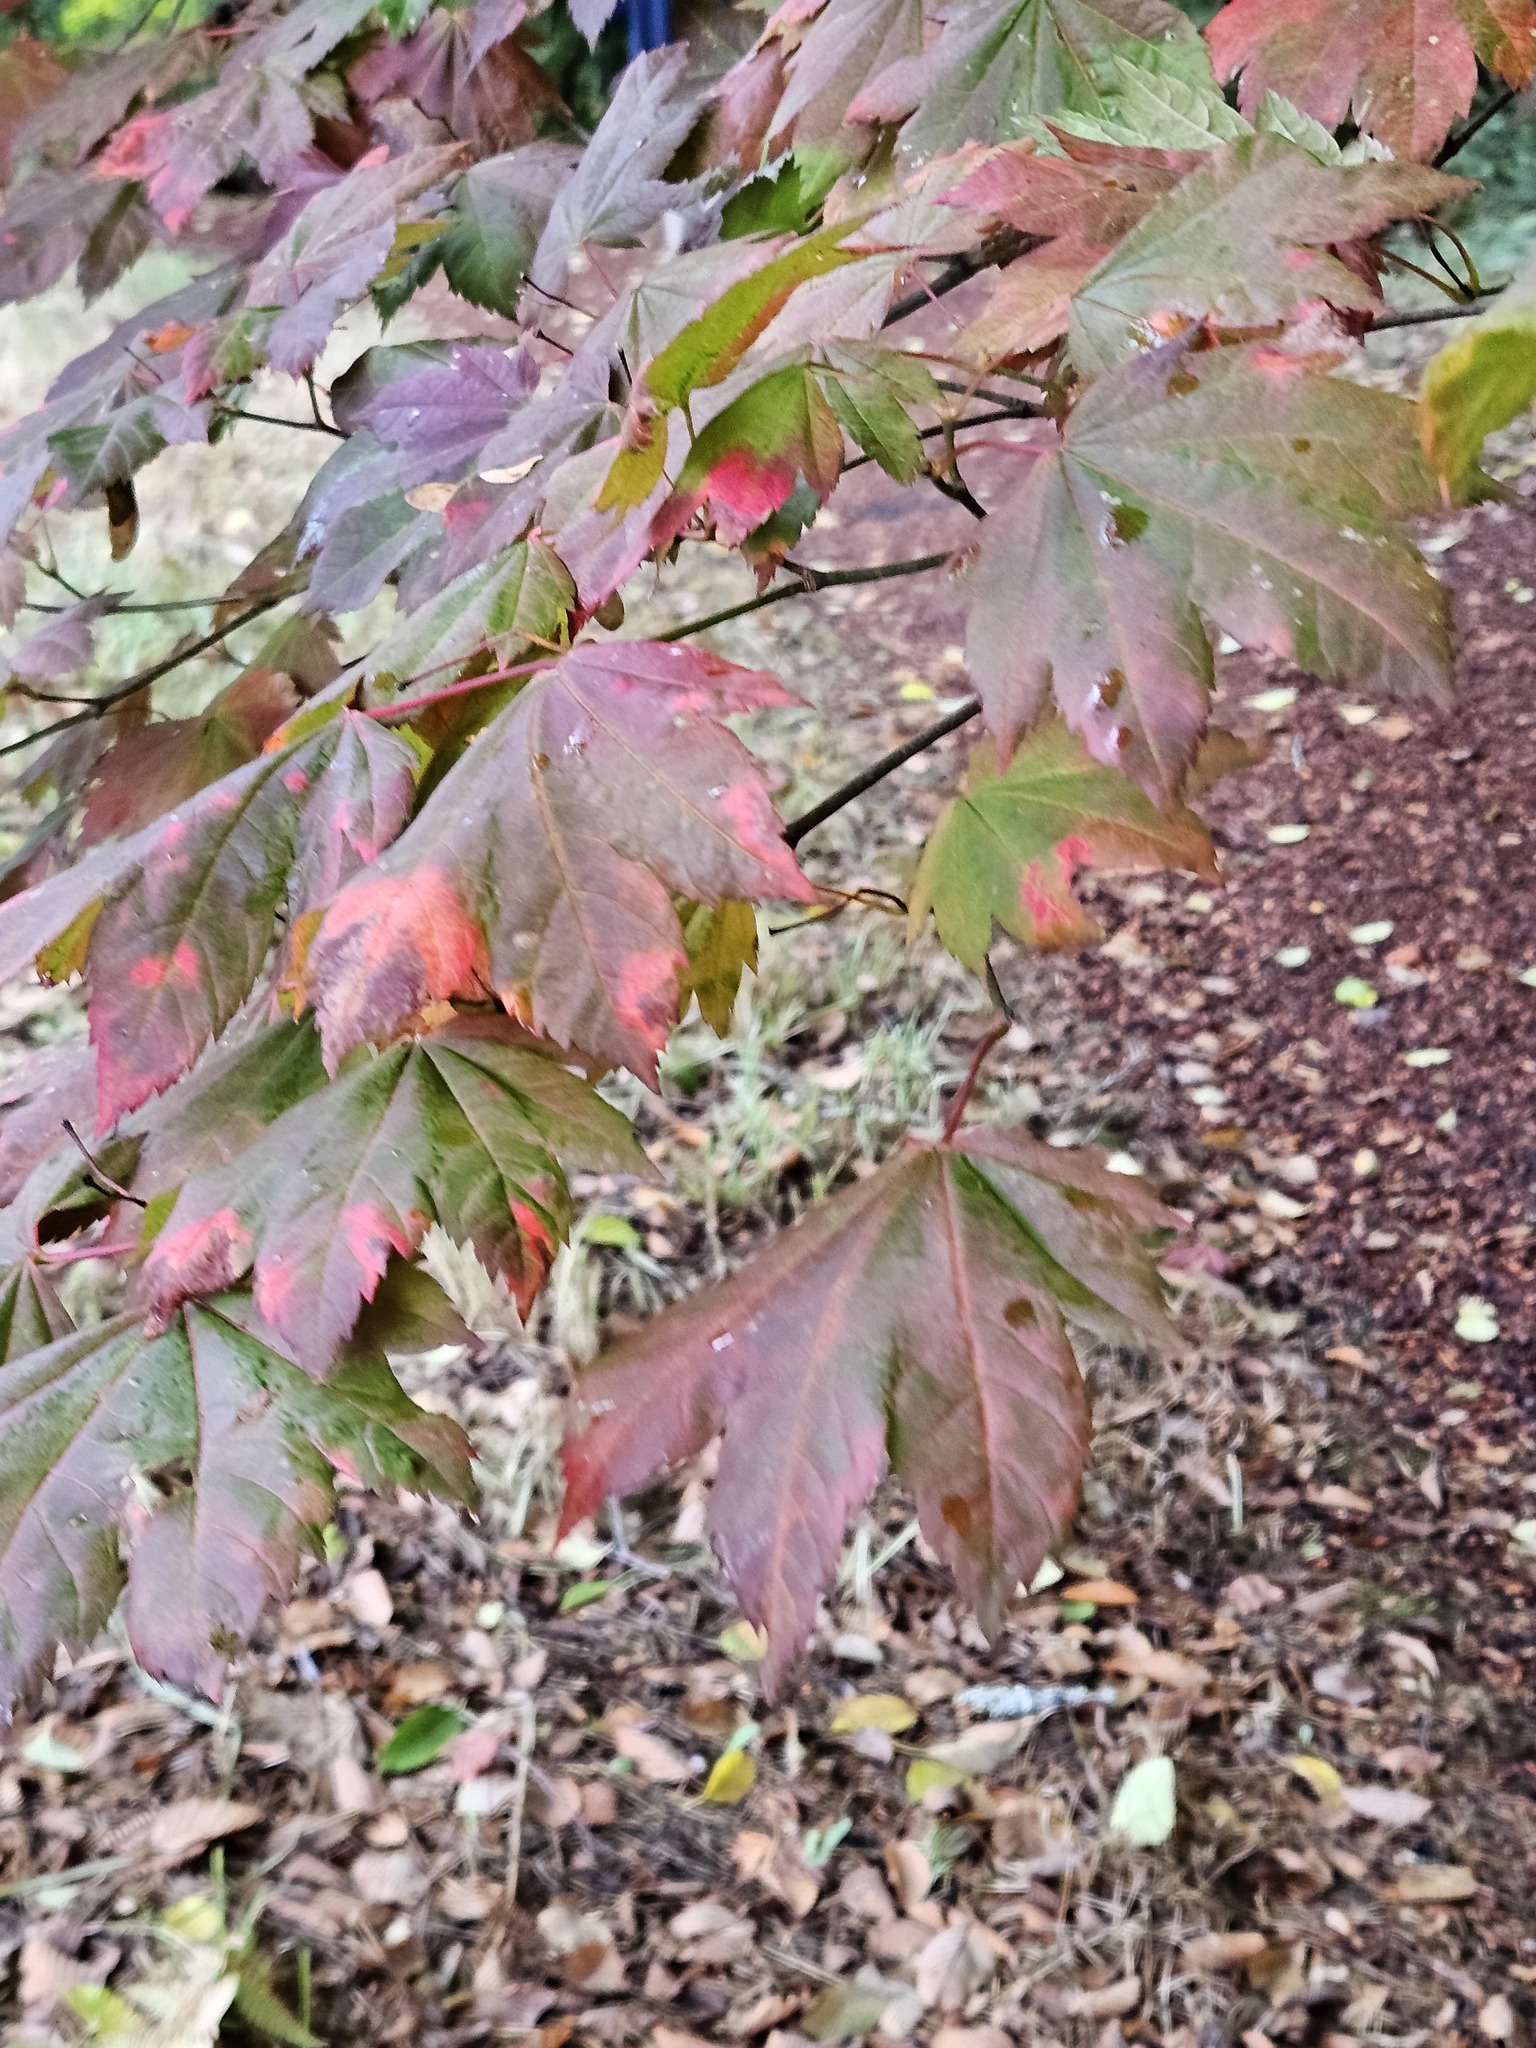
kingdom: Plantae
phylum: Tracheophyta
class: Magnoliopsida
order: Sapindales
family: Sapindaceae
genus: Acer
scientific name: Acer circinatum
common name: Vine maple
